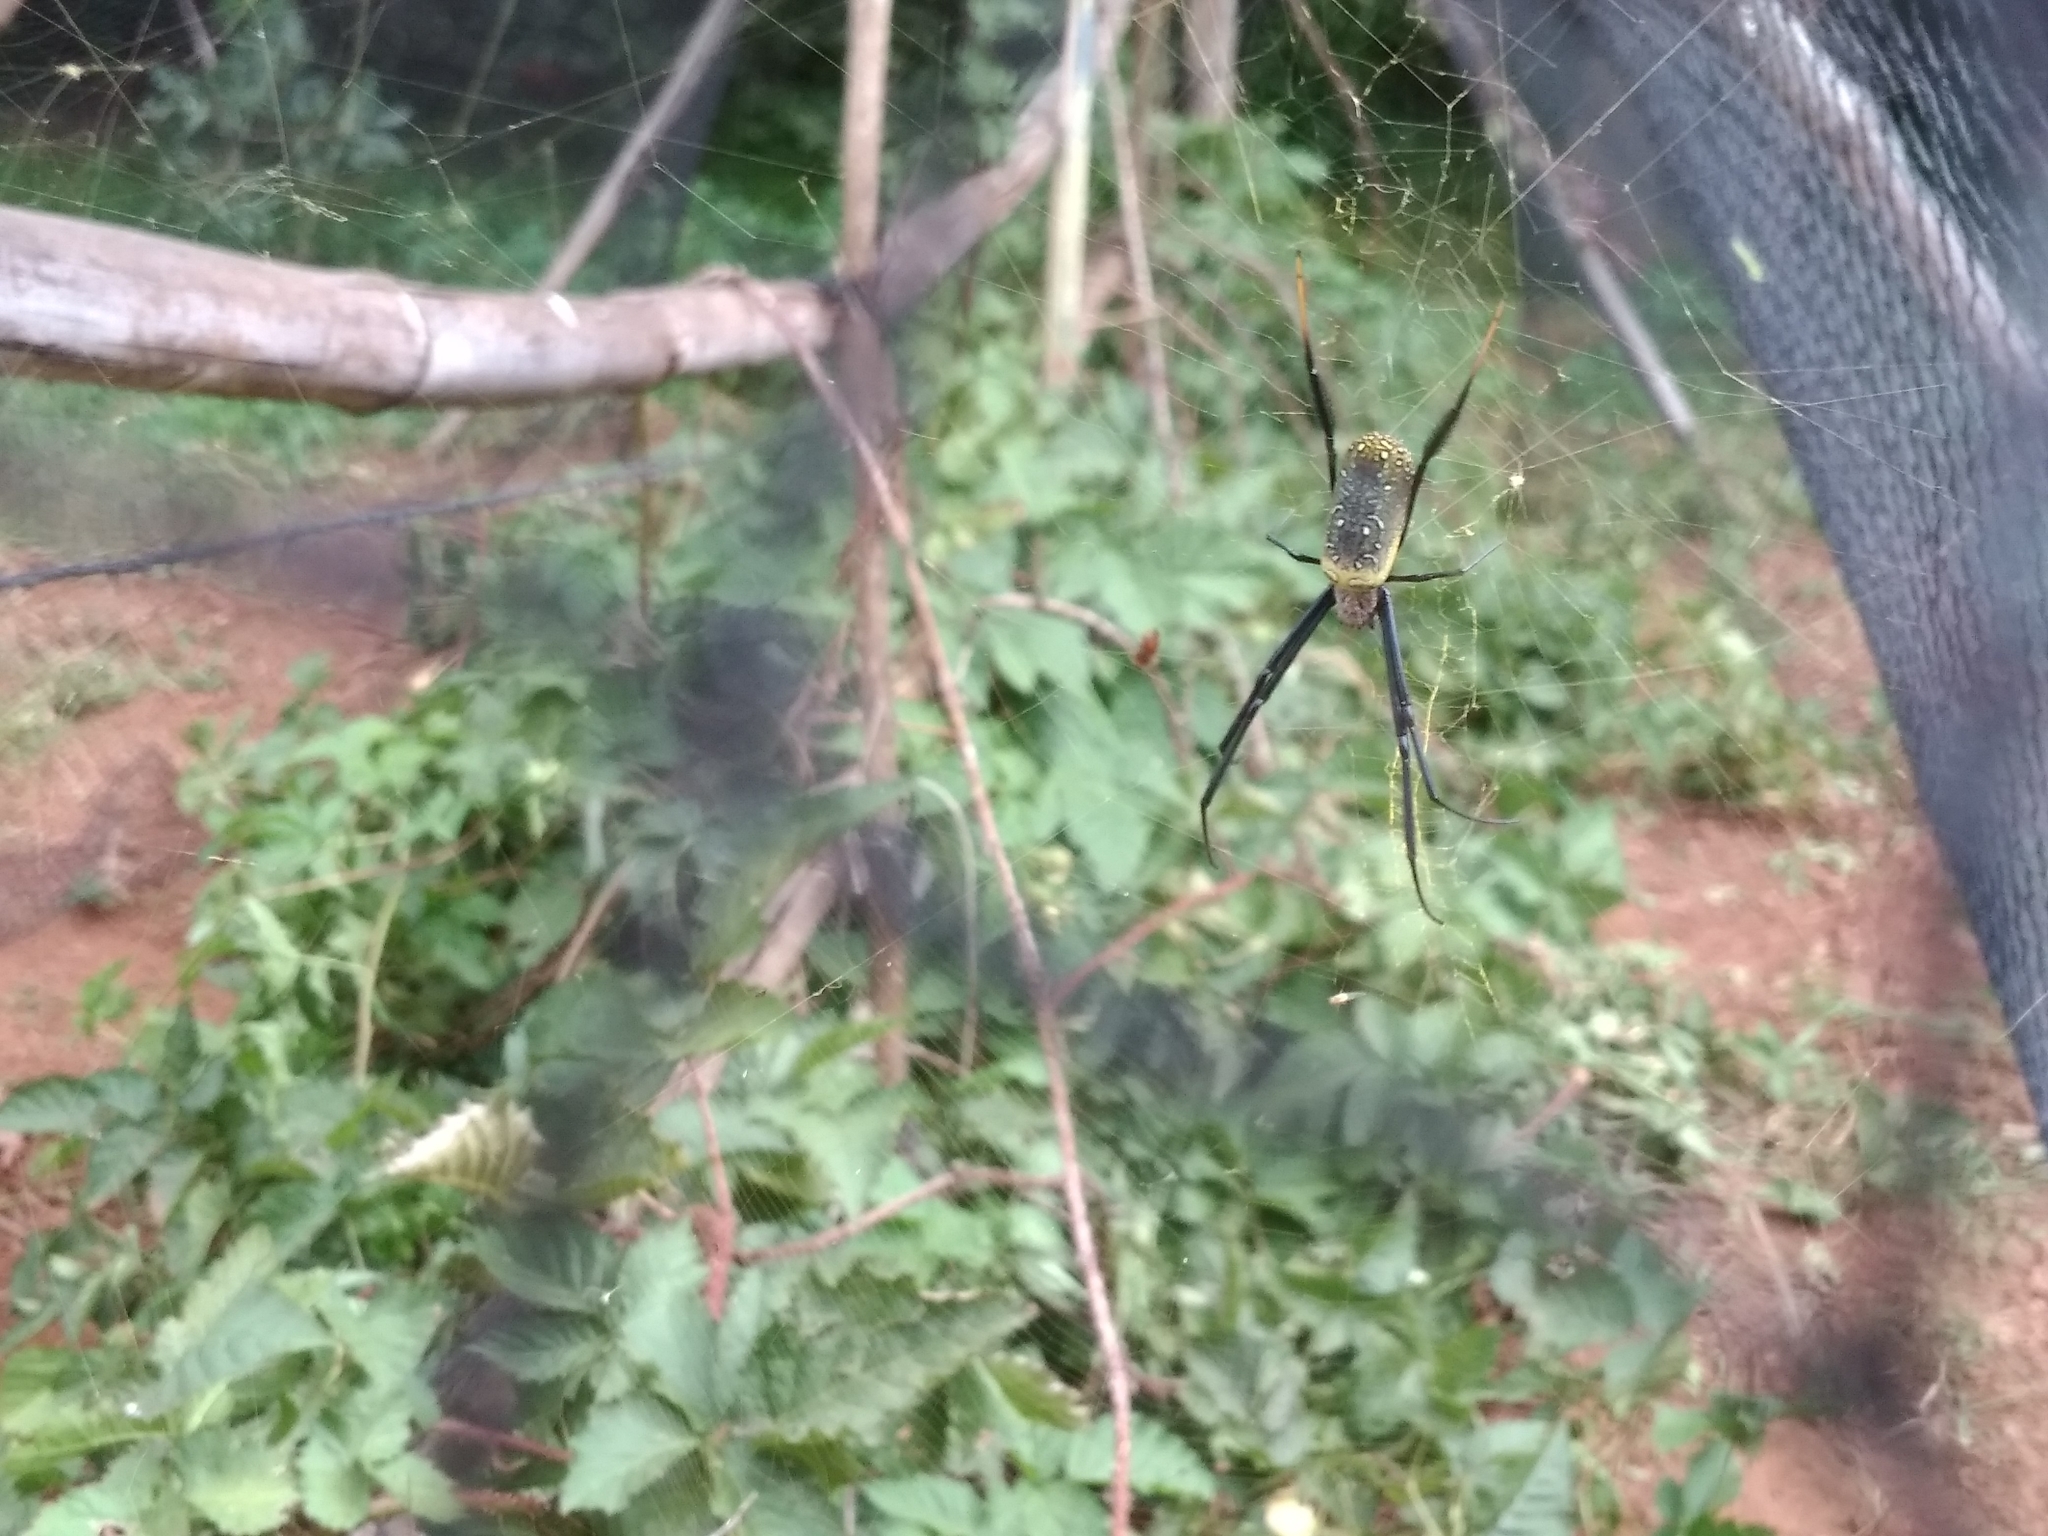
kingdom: Animalia
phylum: Arthropoda
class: Arachnida
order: Araneae
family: Araneidae
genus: Trichonephila
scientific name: Trichonephila fenestrata
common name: Hairy golden orb weaver
